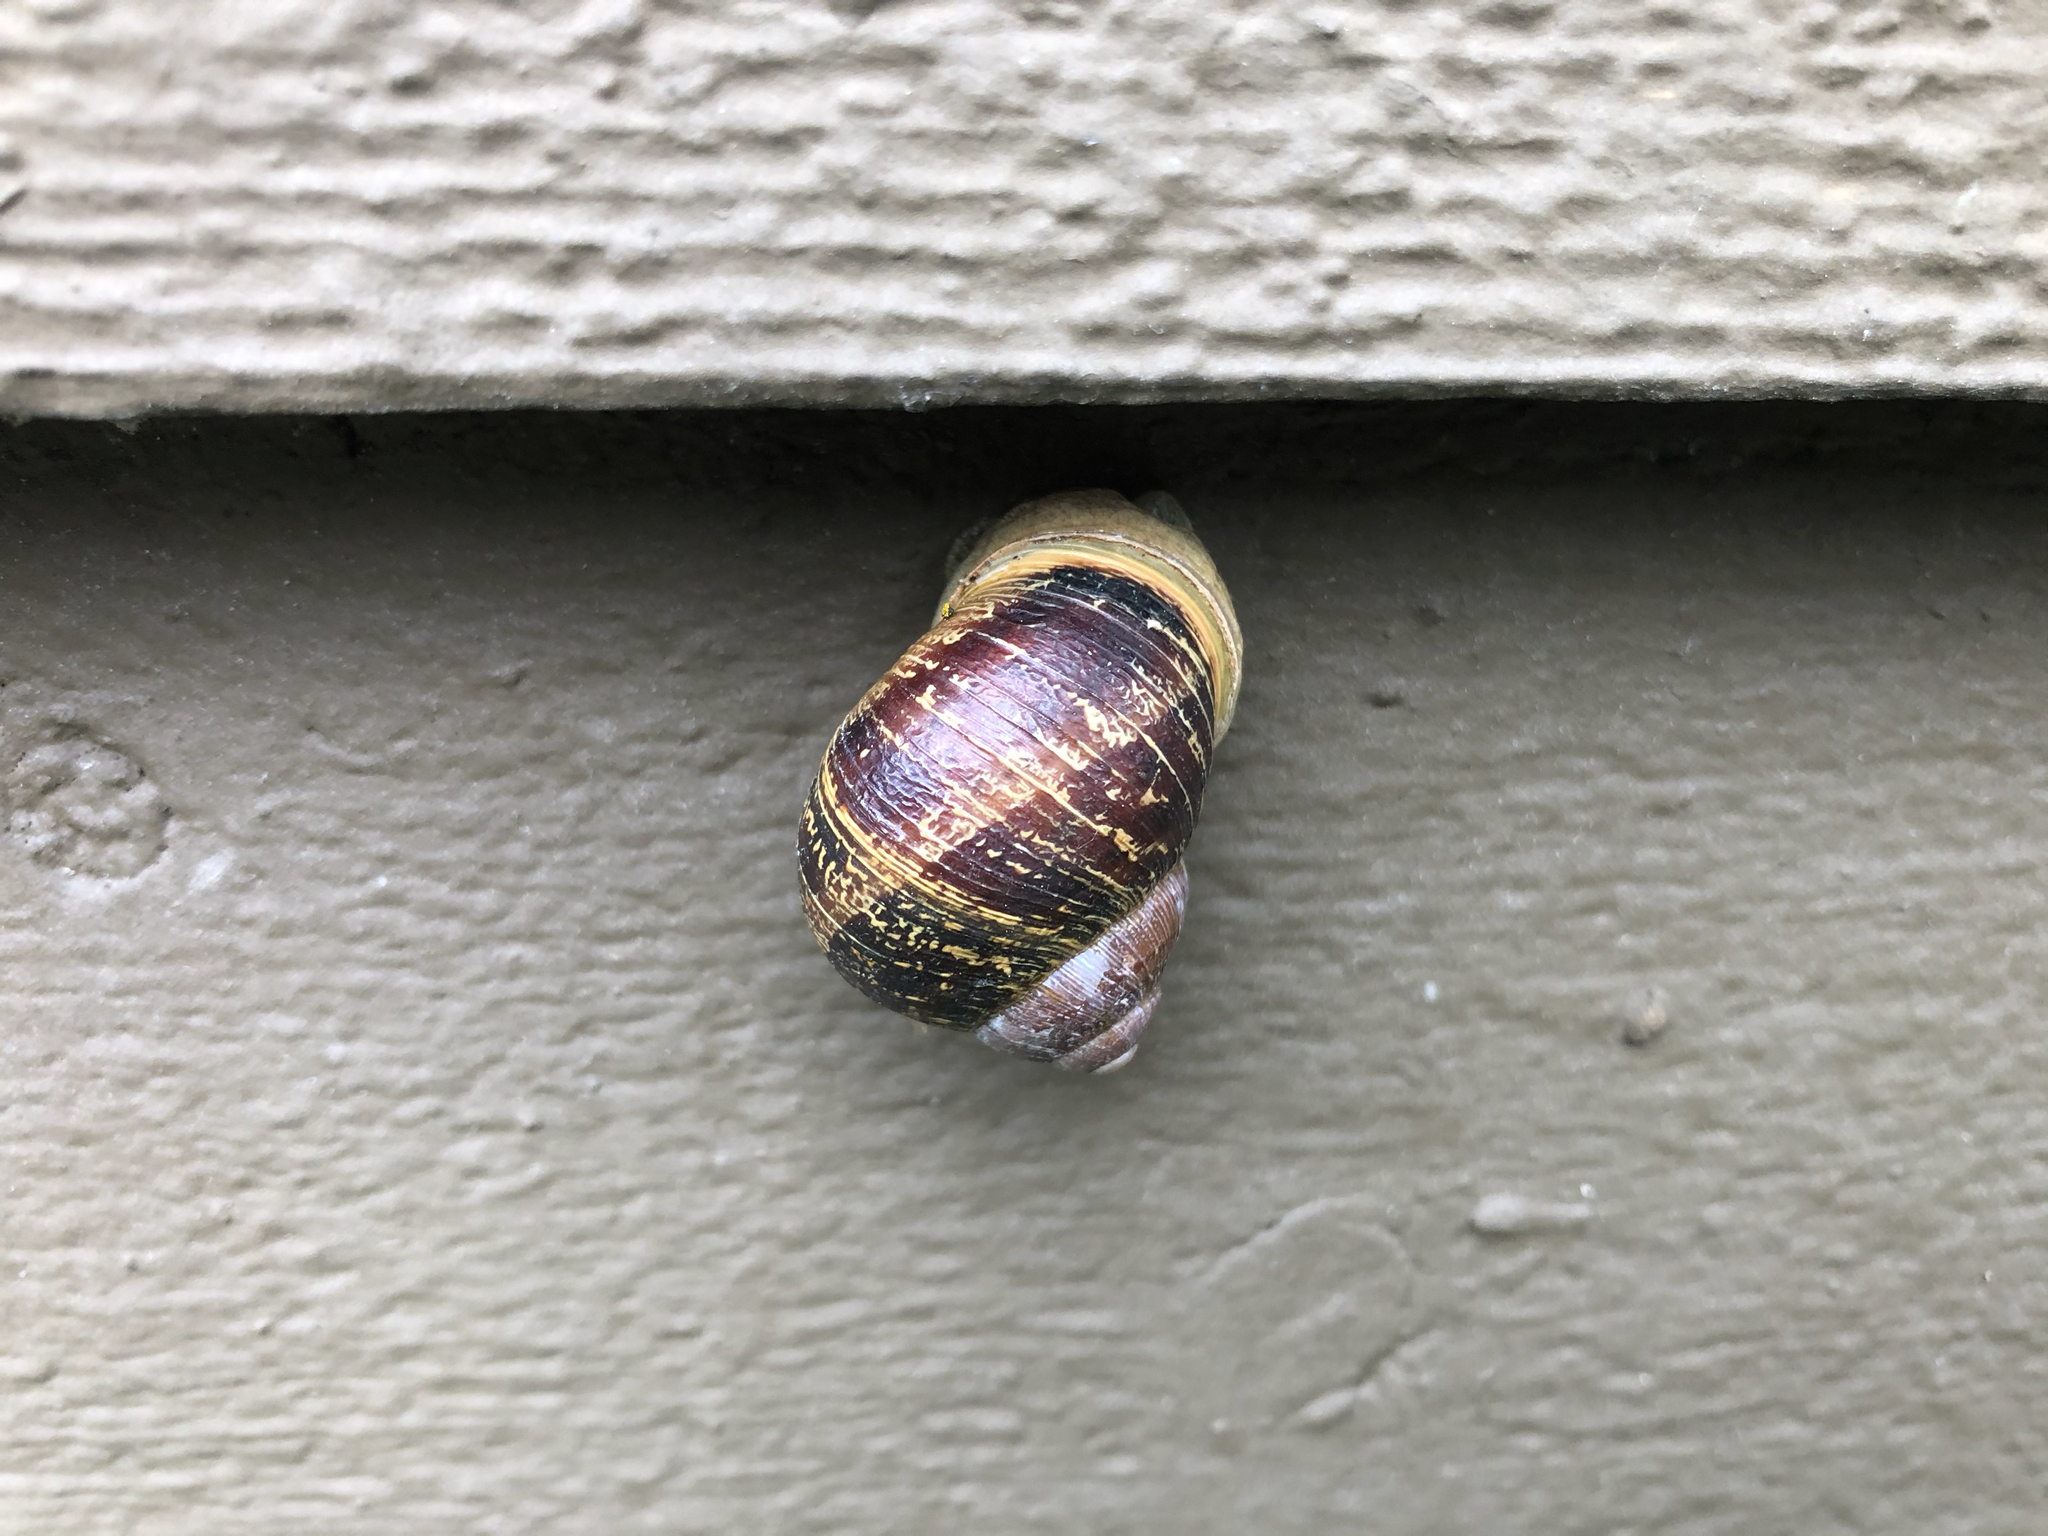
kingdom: Animalia
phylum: Mollusca
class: Gastropoda
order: Stylommatophora
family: Helicidae
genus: Cornu
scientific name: Cornu aspersum
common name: Brown garden snail
